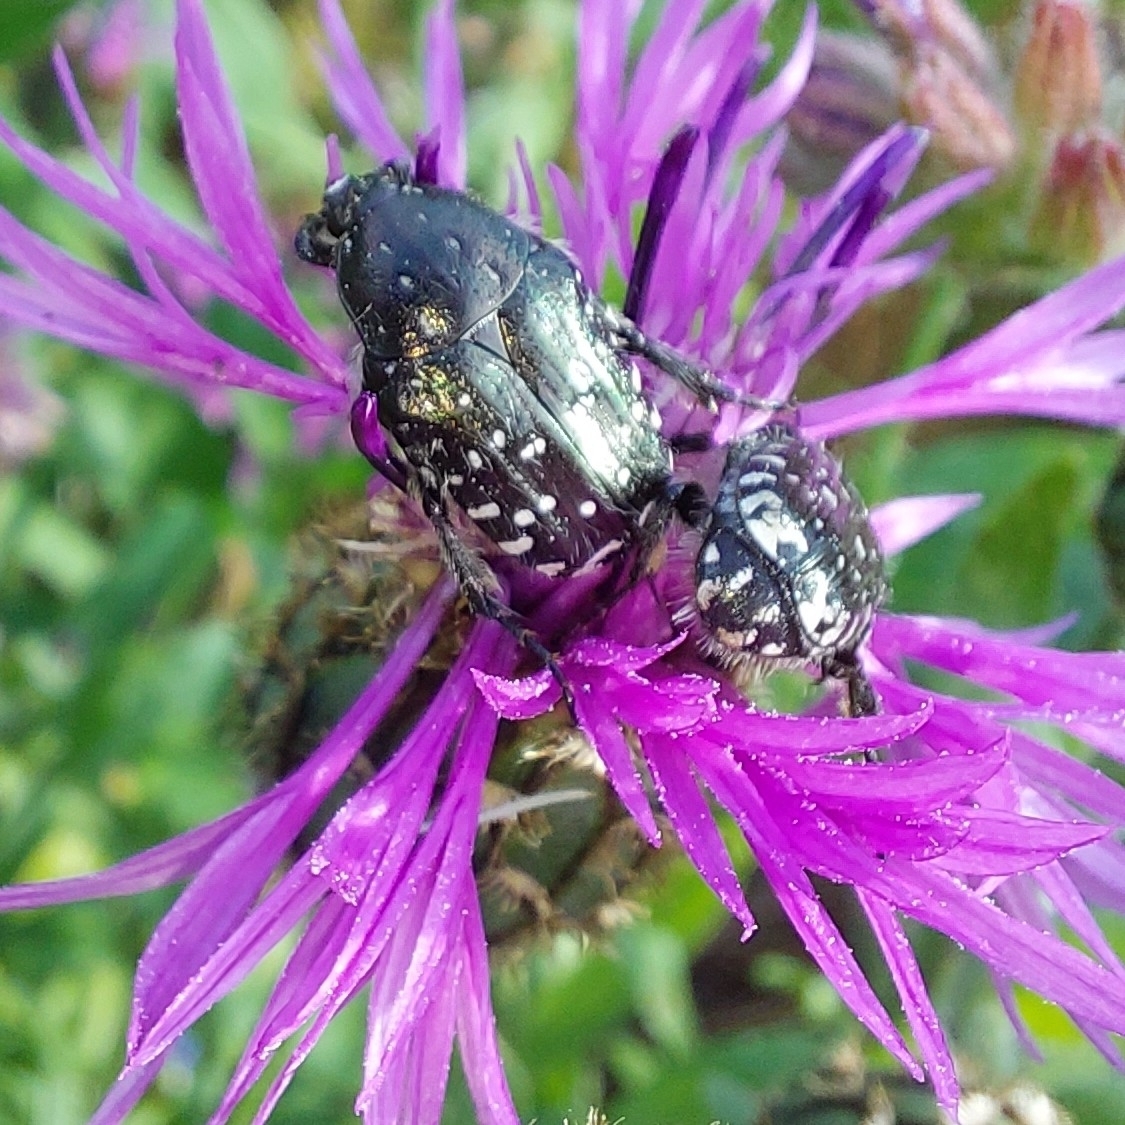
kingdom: Animalia
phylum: Arthropoda
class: Insecta
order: Coleoptera
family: Scarabaeidae
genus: Oxythyrea
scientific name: Oxythyrea funesta
